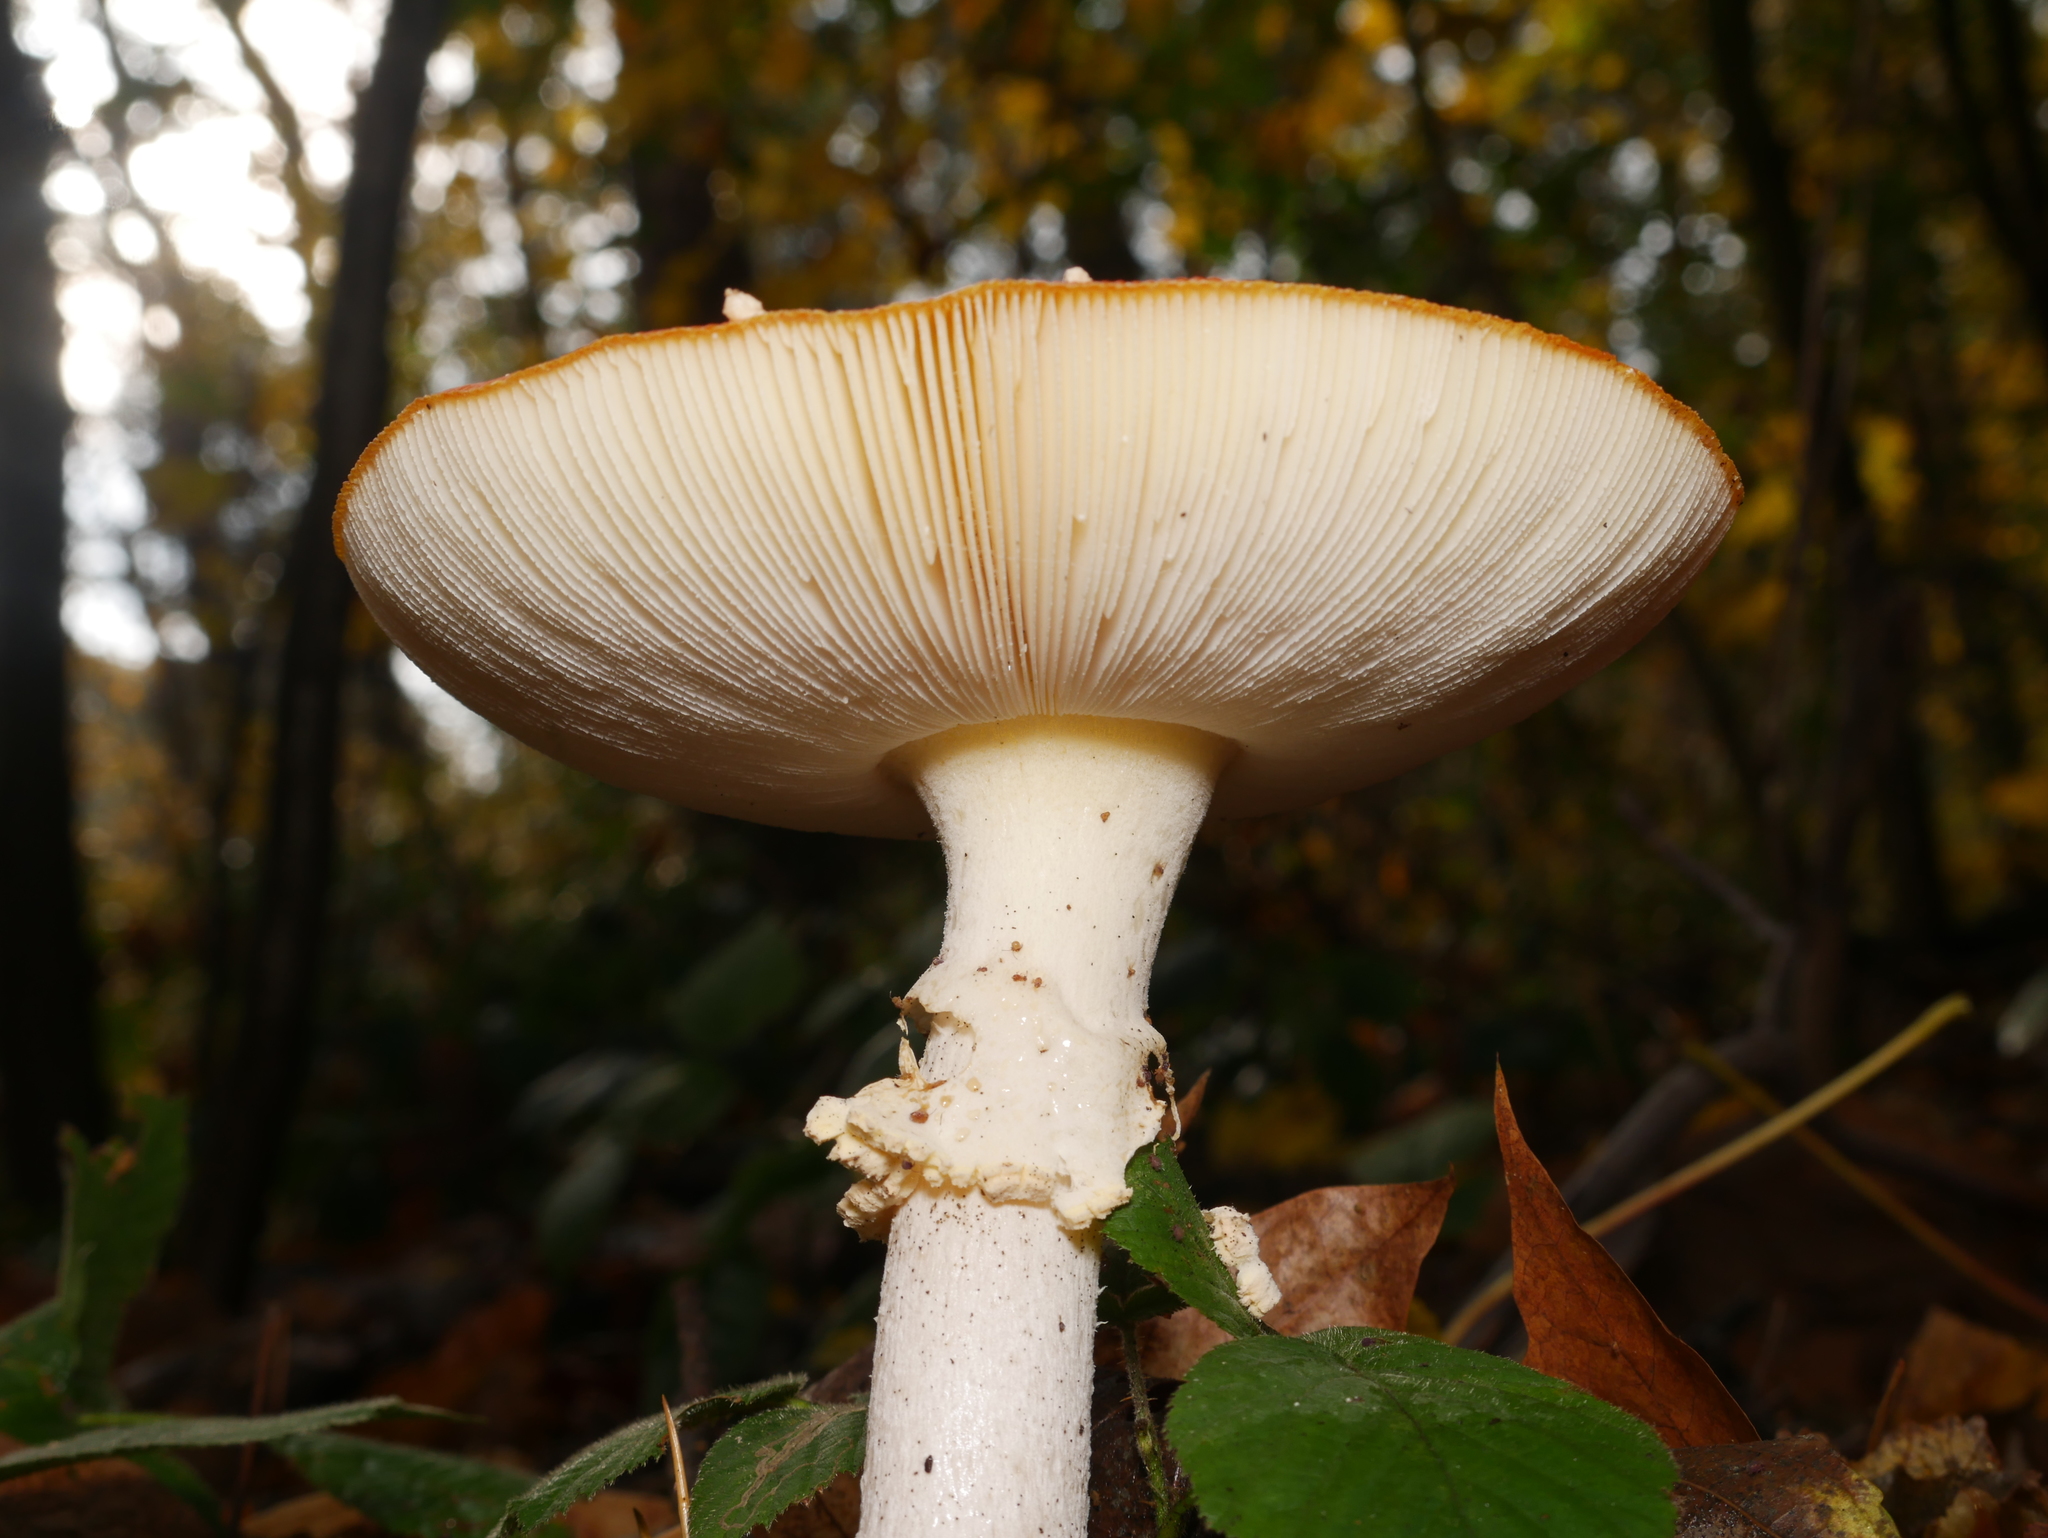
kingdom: Fungi
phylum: Basidiomycota
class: Agaricomycetes
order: Agaricales
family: Amanitaceae
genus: Amanita
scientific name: Amanita muscaria
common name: Fly agaric
